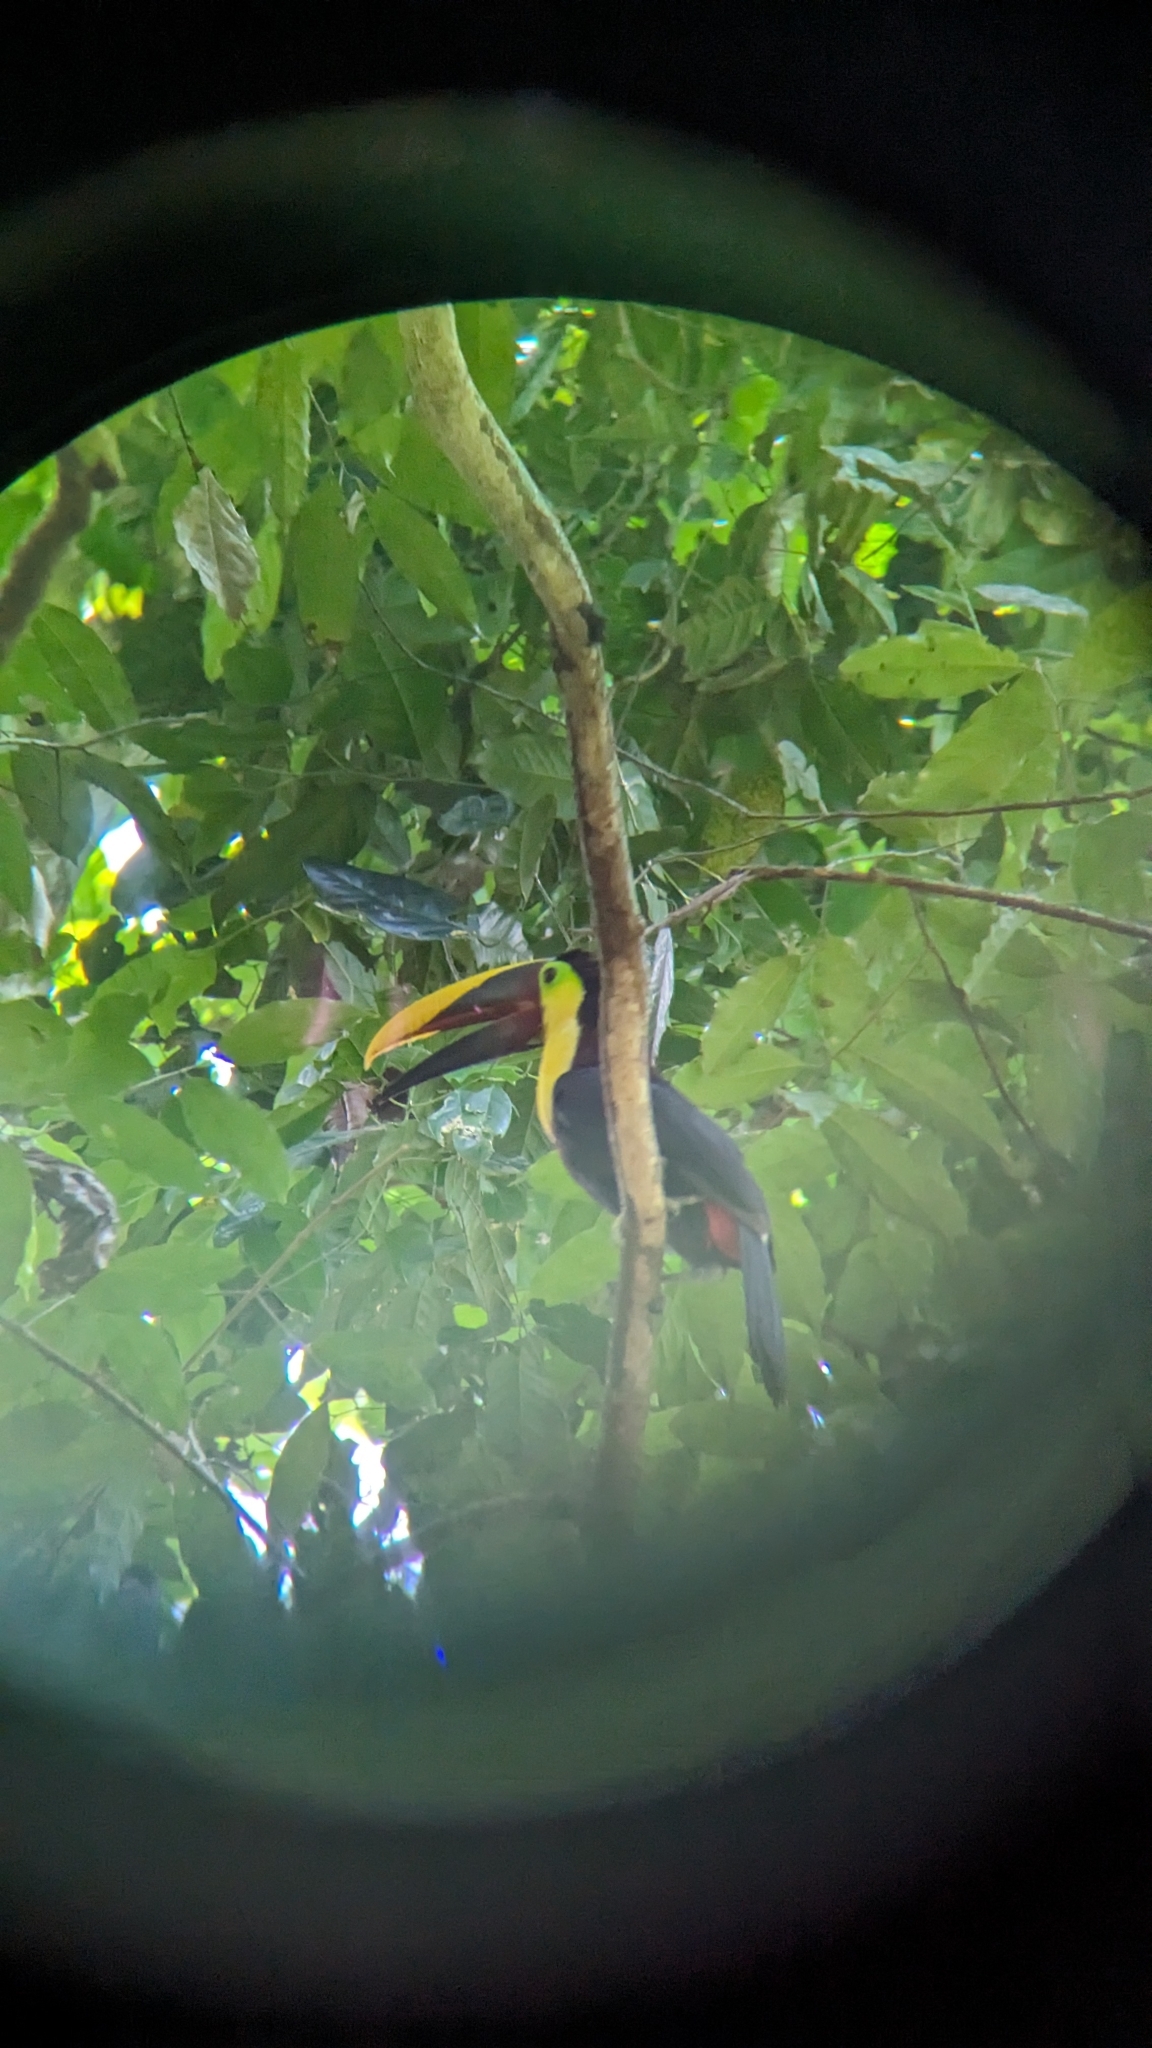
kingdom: Animalia
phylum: Chordata
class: Aves
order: Piciformes
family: Ramphastidae
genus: Ramphastos
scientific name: Ramphastos ambiguus
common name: Yellow-throated toucan
